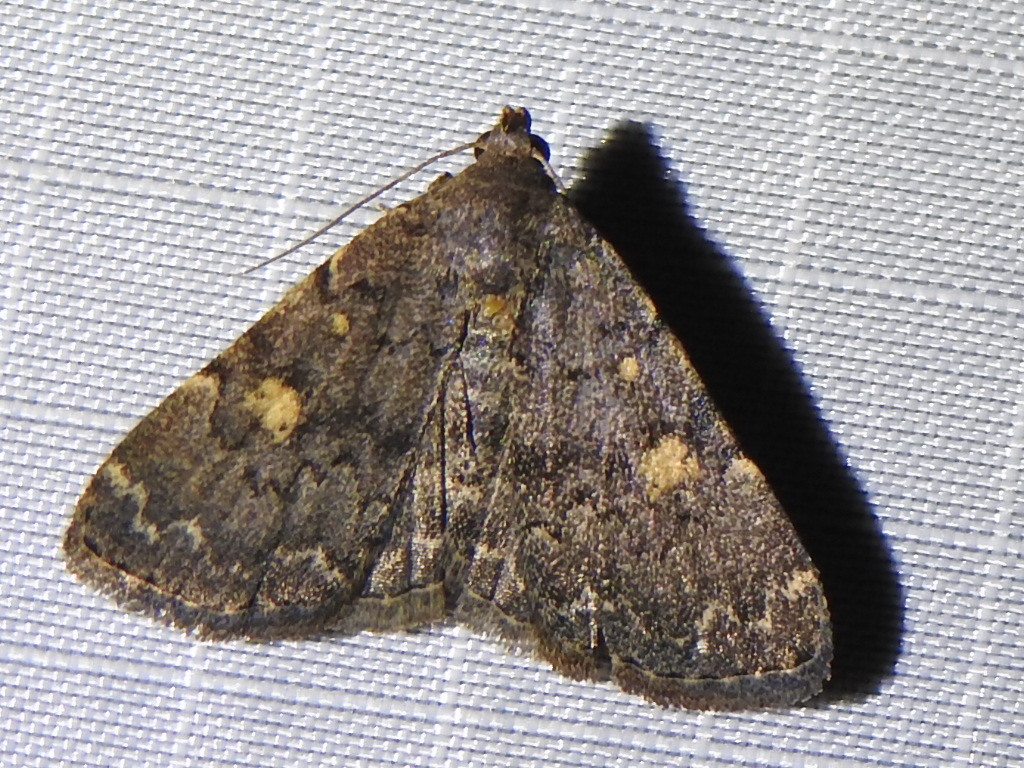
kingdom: Animalia
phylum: Arthropoda
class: Insecta
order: Lepidoptera
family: Erebidae
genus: Idia
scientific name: Idia aemula
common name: Common idia moth
